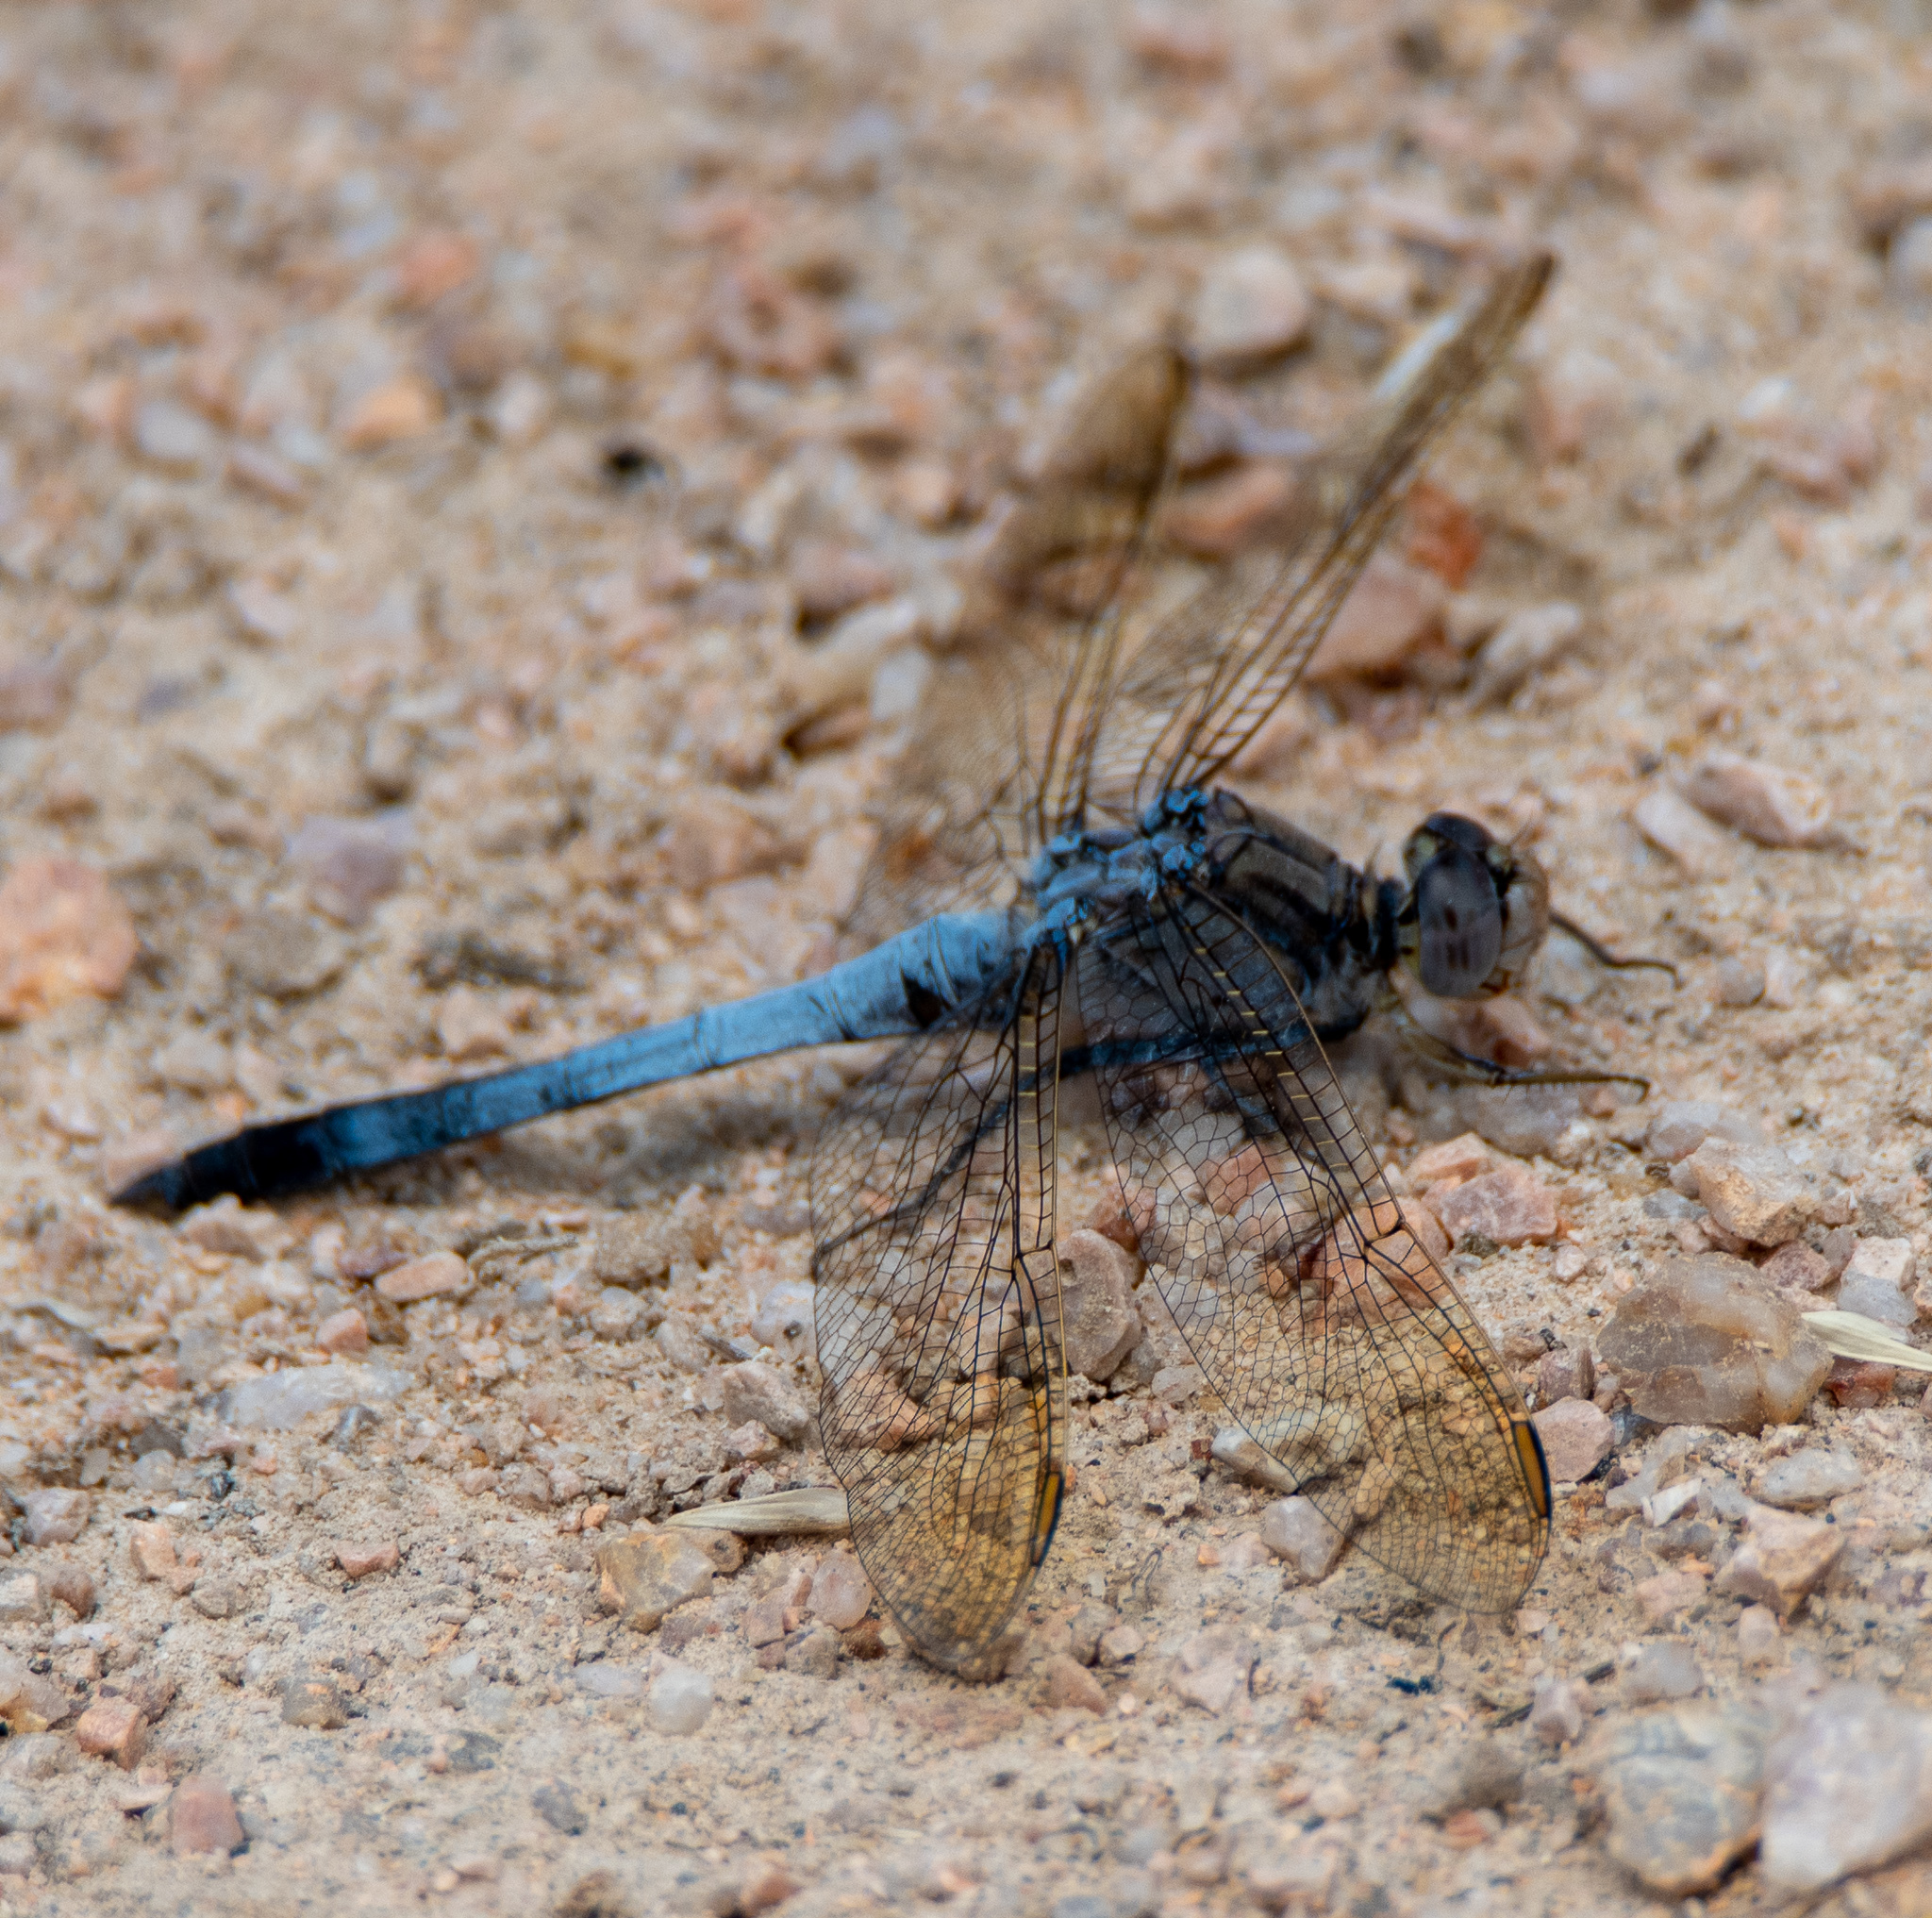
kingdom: Animalia
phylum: Arthropoda
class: Insecta
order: Odonata
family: Libellulidae
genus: Orthetrum
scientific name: Orthetrum caledonicum
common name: Blue skimmer
